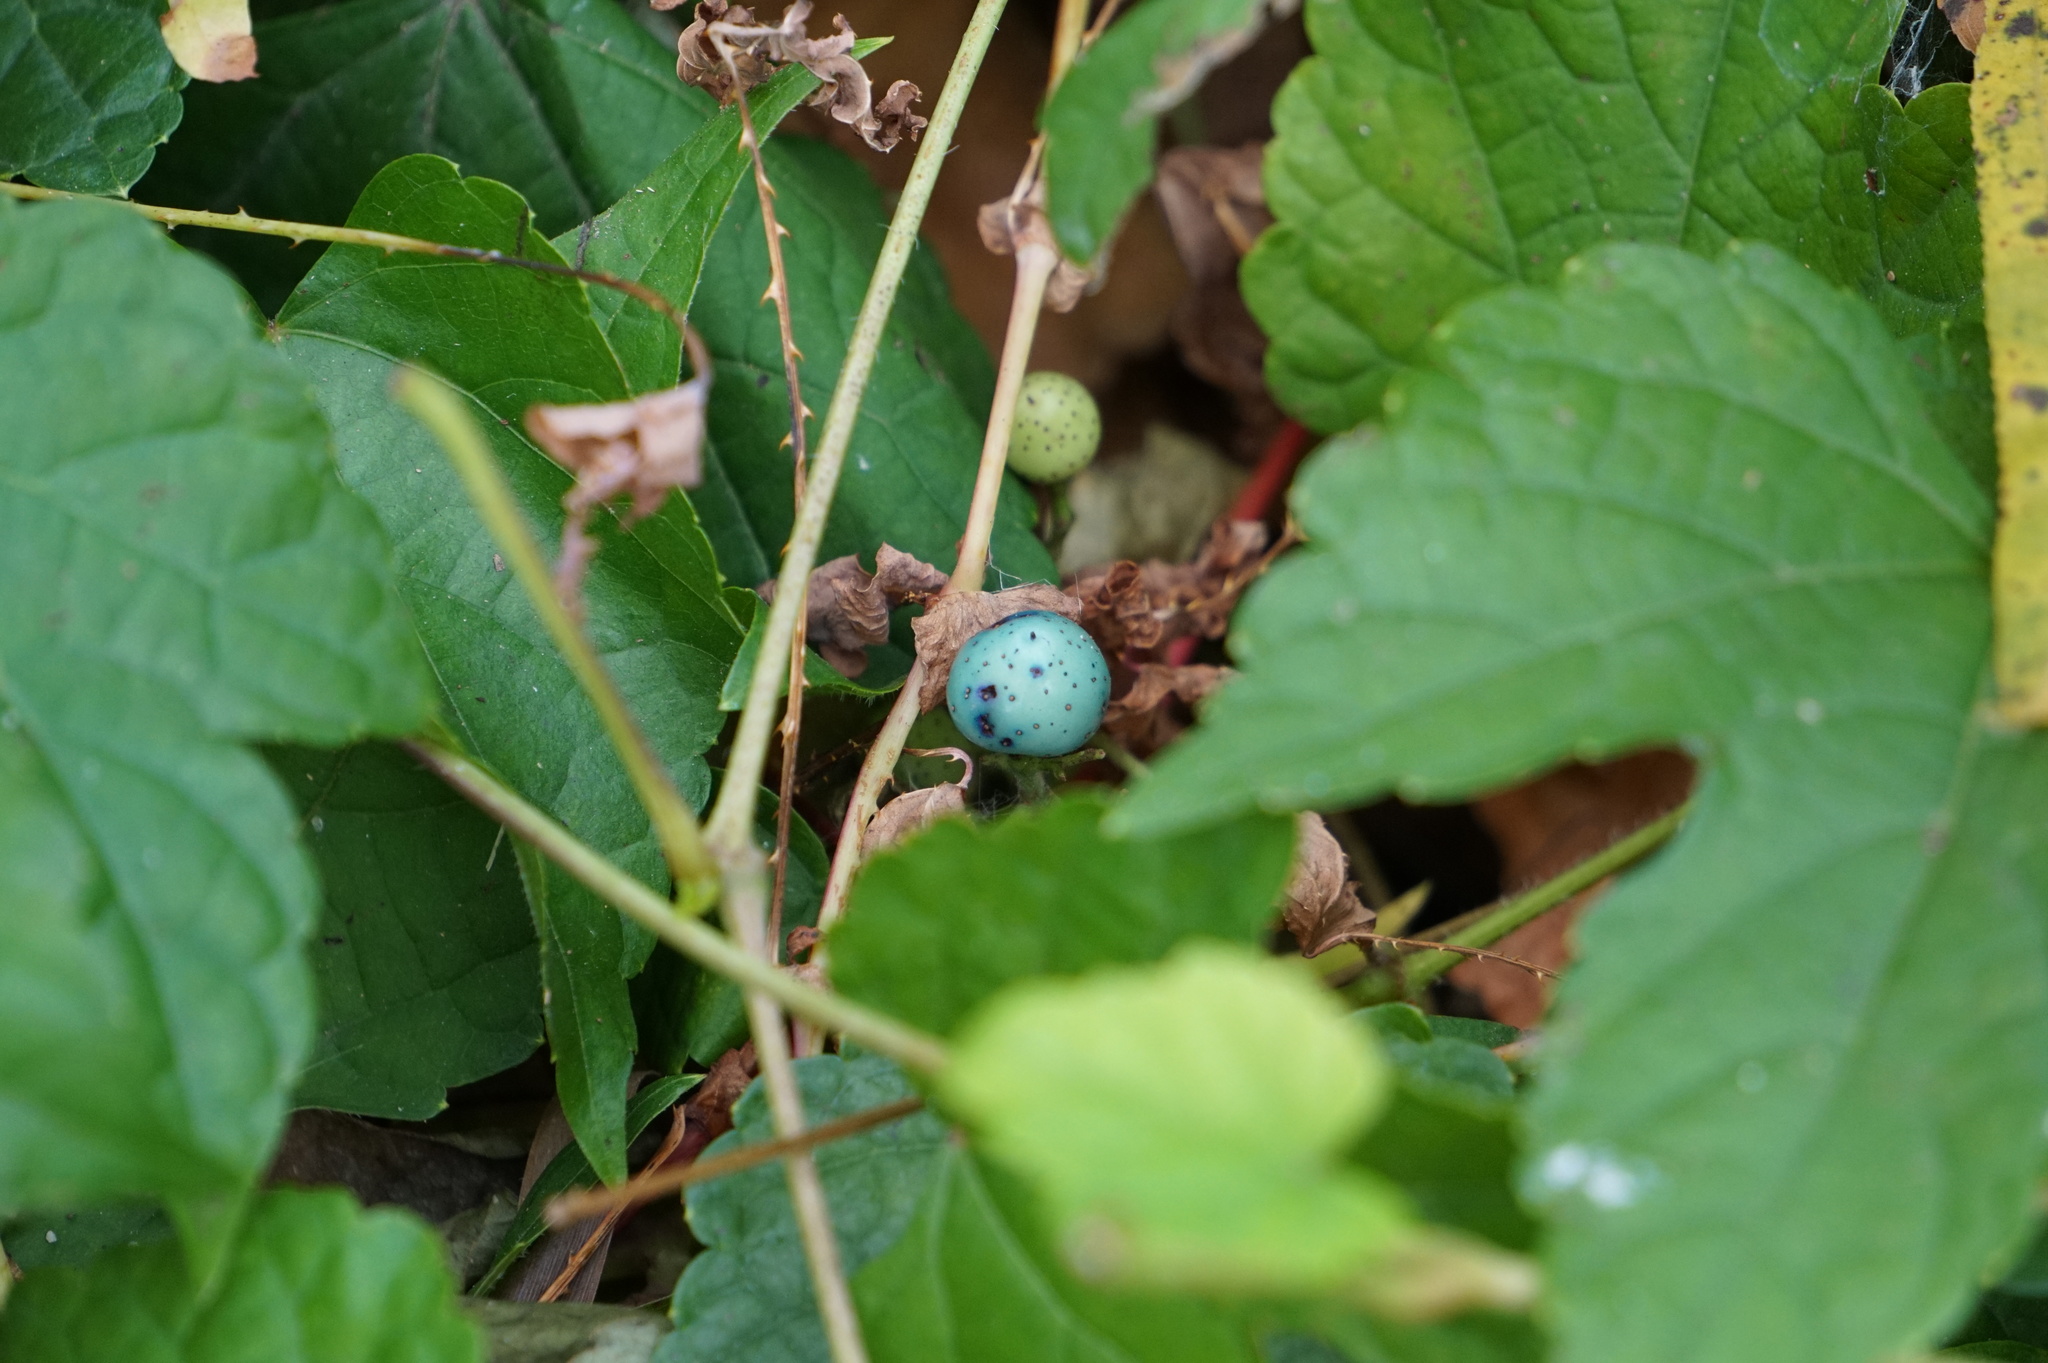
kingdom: Plantae
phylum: Tracheophyta
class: Magnoliopsida
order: Vitales
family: Vitaceae
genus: Ampelopsis
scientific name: Ampelopsis glandulosa
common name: Amur peppervine
